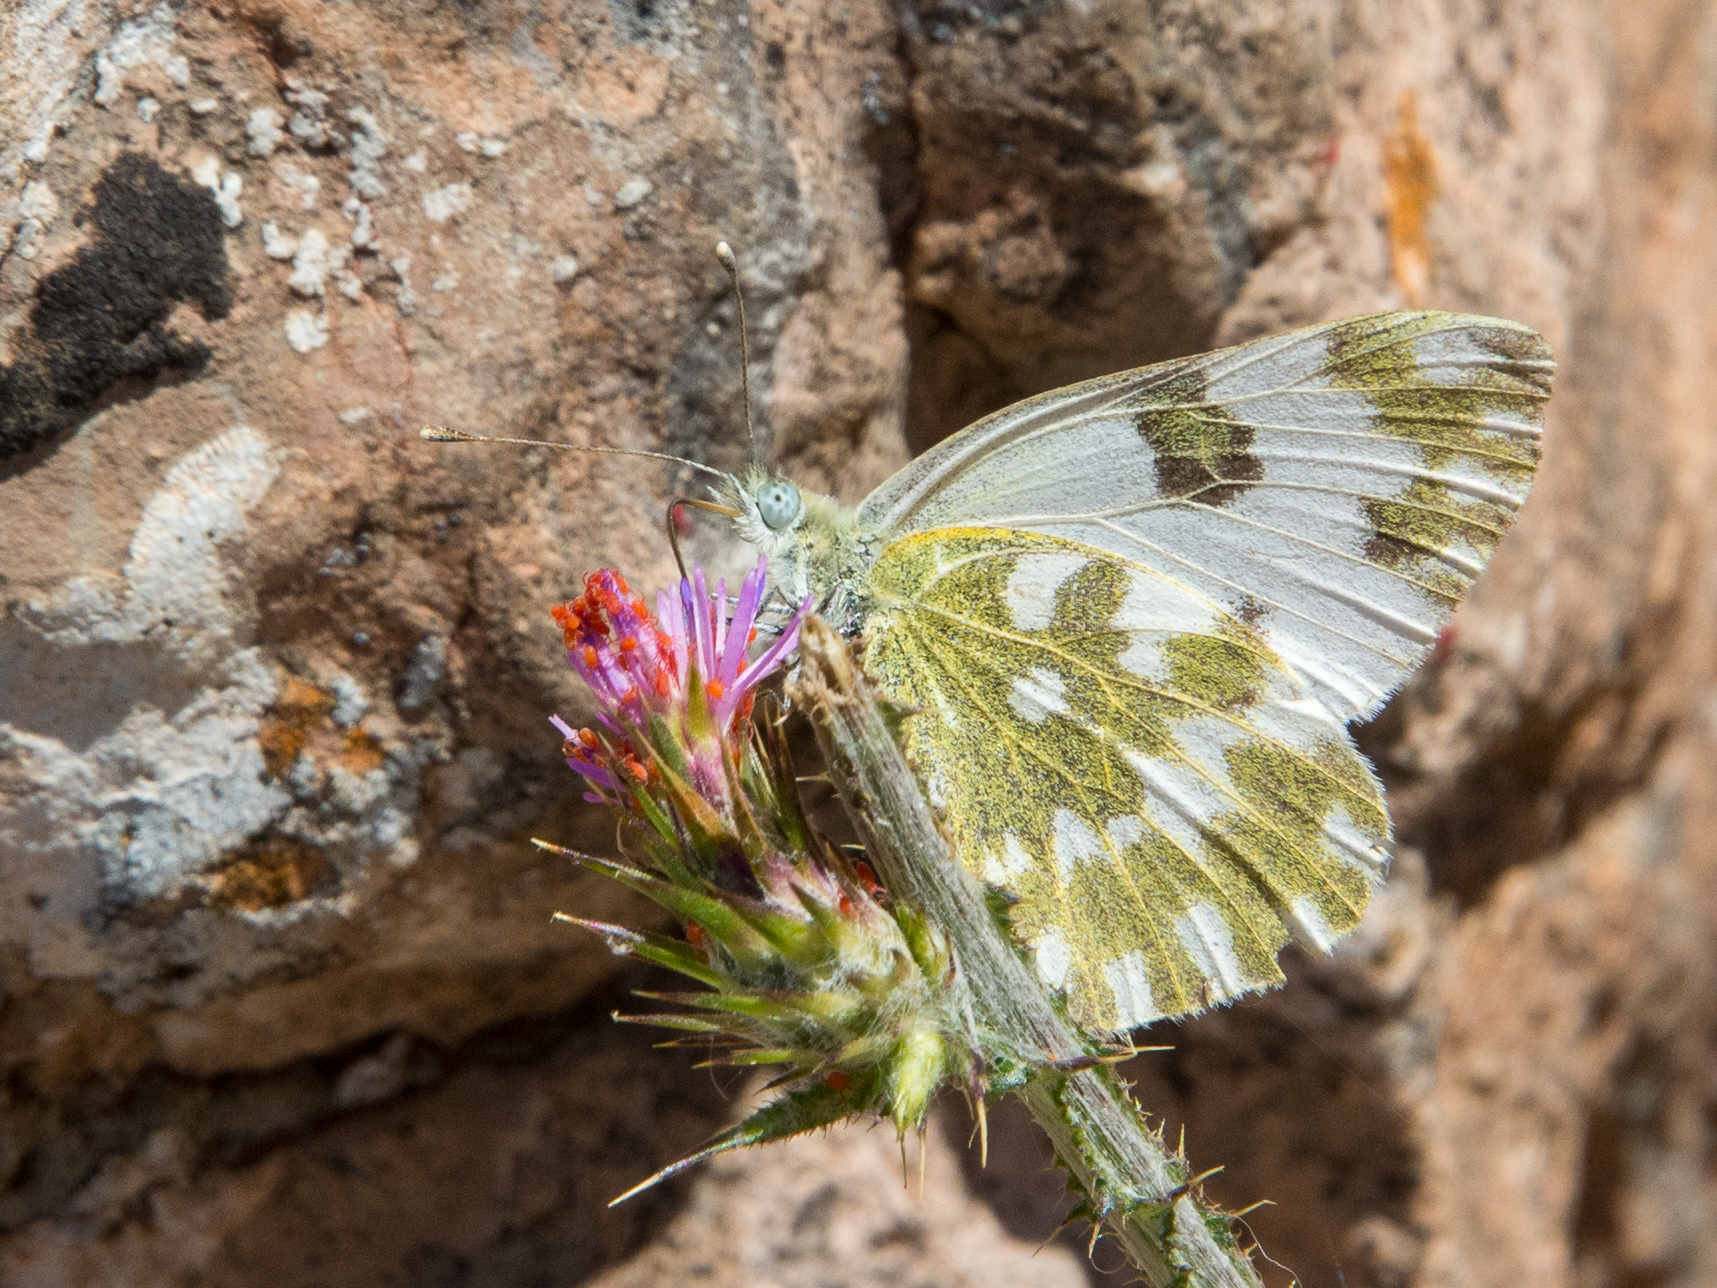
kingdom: Animalia
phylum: Arthropoda
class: Insecta
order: Lepidoptera
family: Pieridae
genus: Pontia
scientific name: Pontia edusa
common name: Eastern bath white
